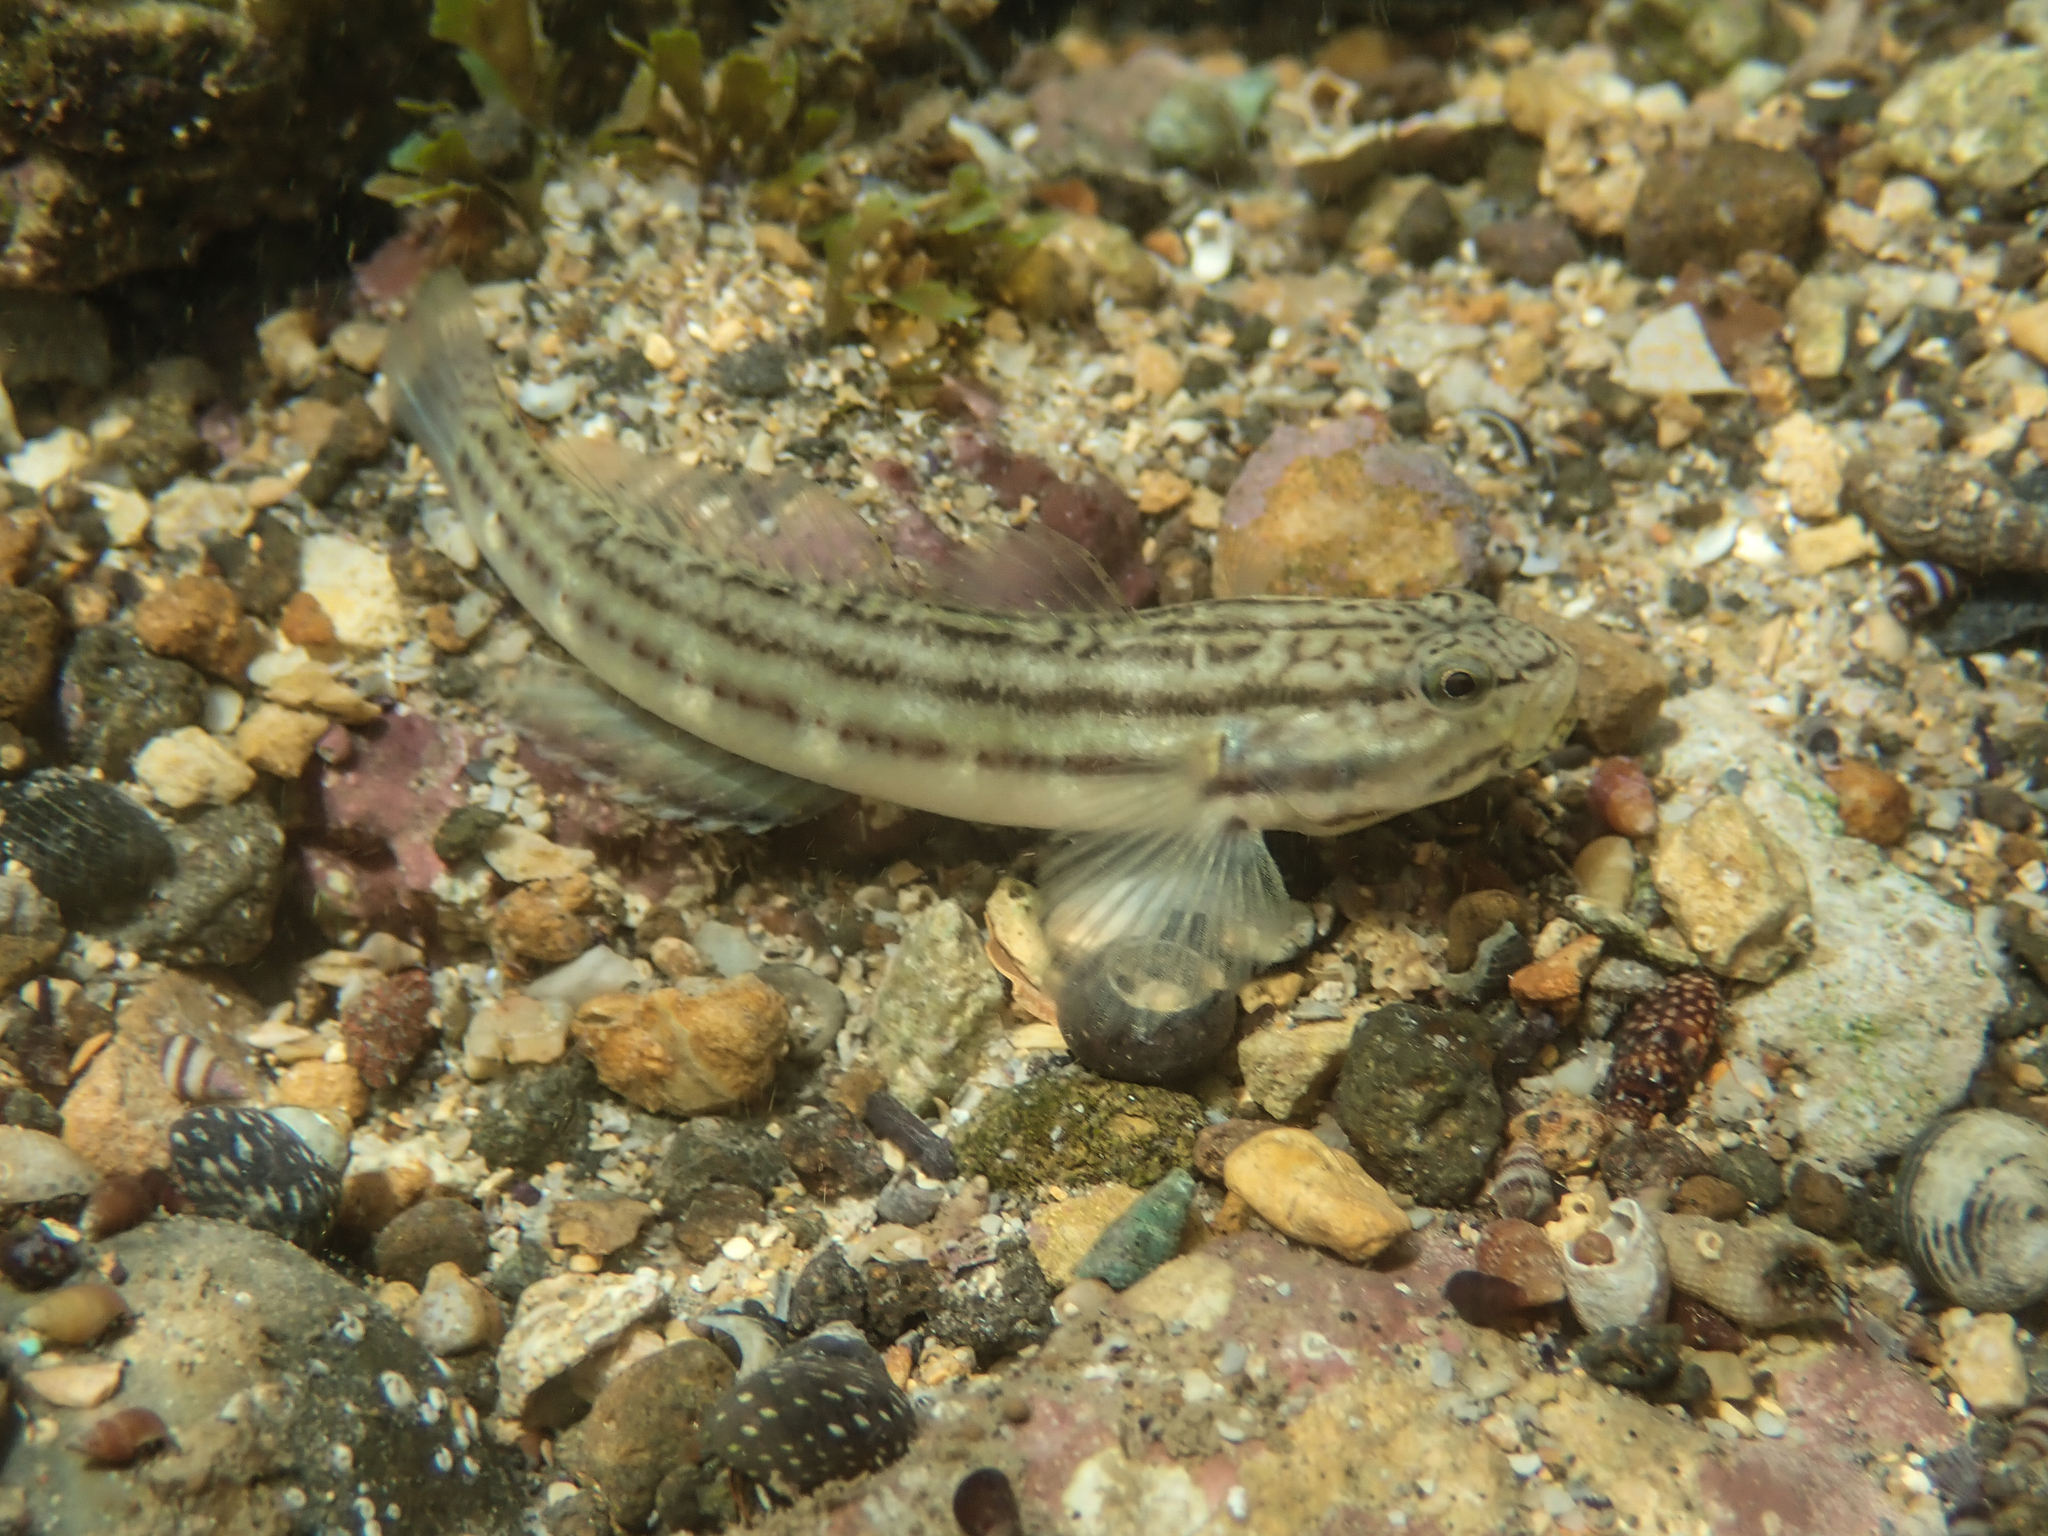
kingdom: Animalia
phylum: Chordata
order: Perciformes
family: Gobiidae
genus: Bathygobius
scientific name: Bathygobius casamancus
